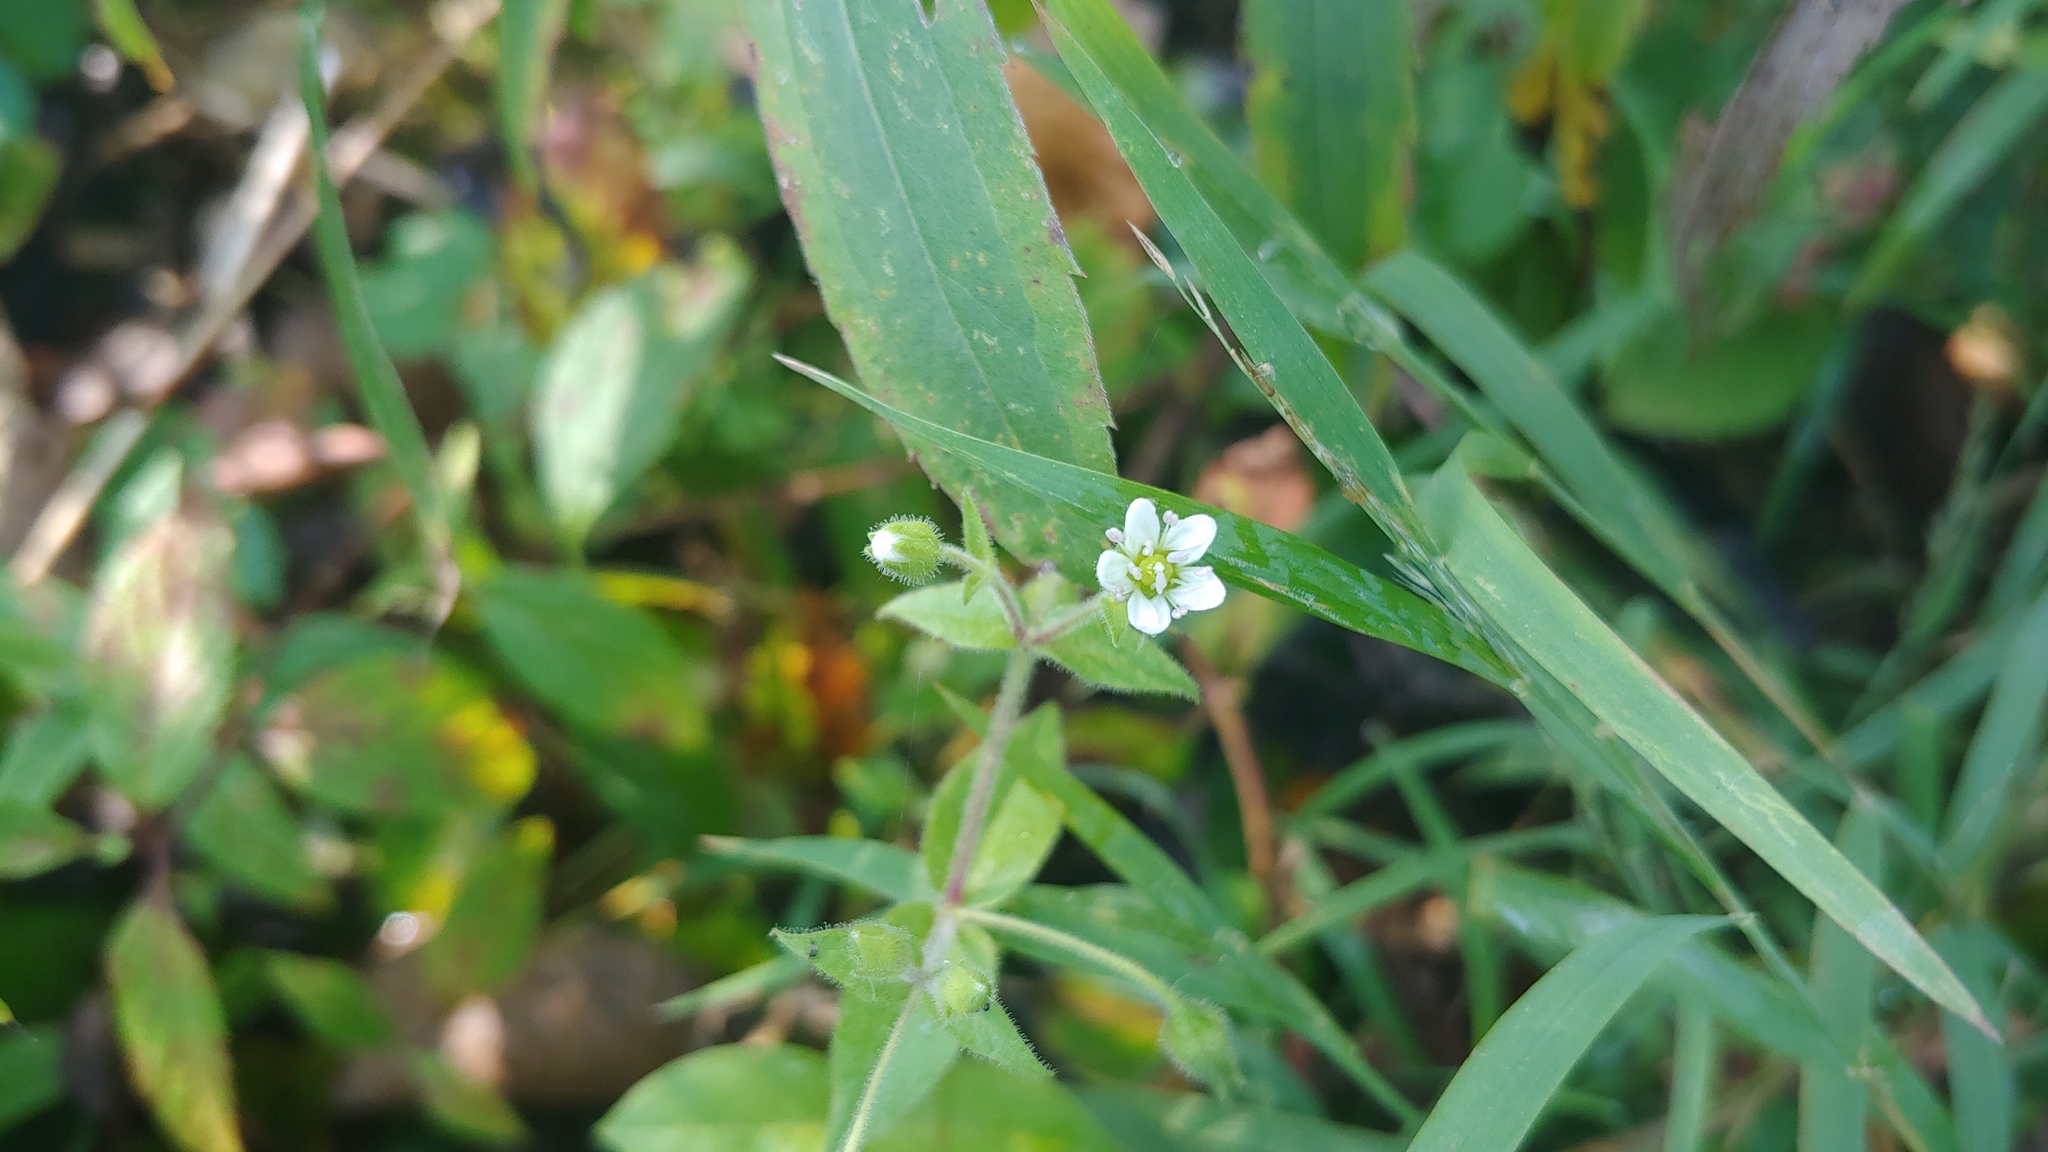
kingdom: Plantae
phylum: Tracheophyta
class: Magnoliopsida
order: Caryophyllales
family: Caryophyllaceae
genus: Cerastium
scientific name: Cerastium nutans
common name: Long-stalked chickweed
